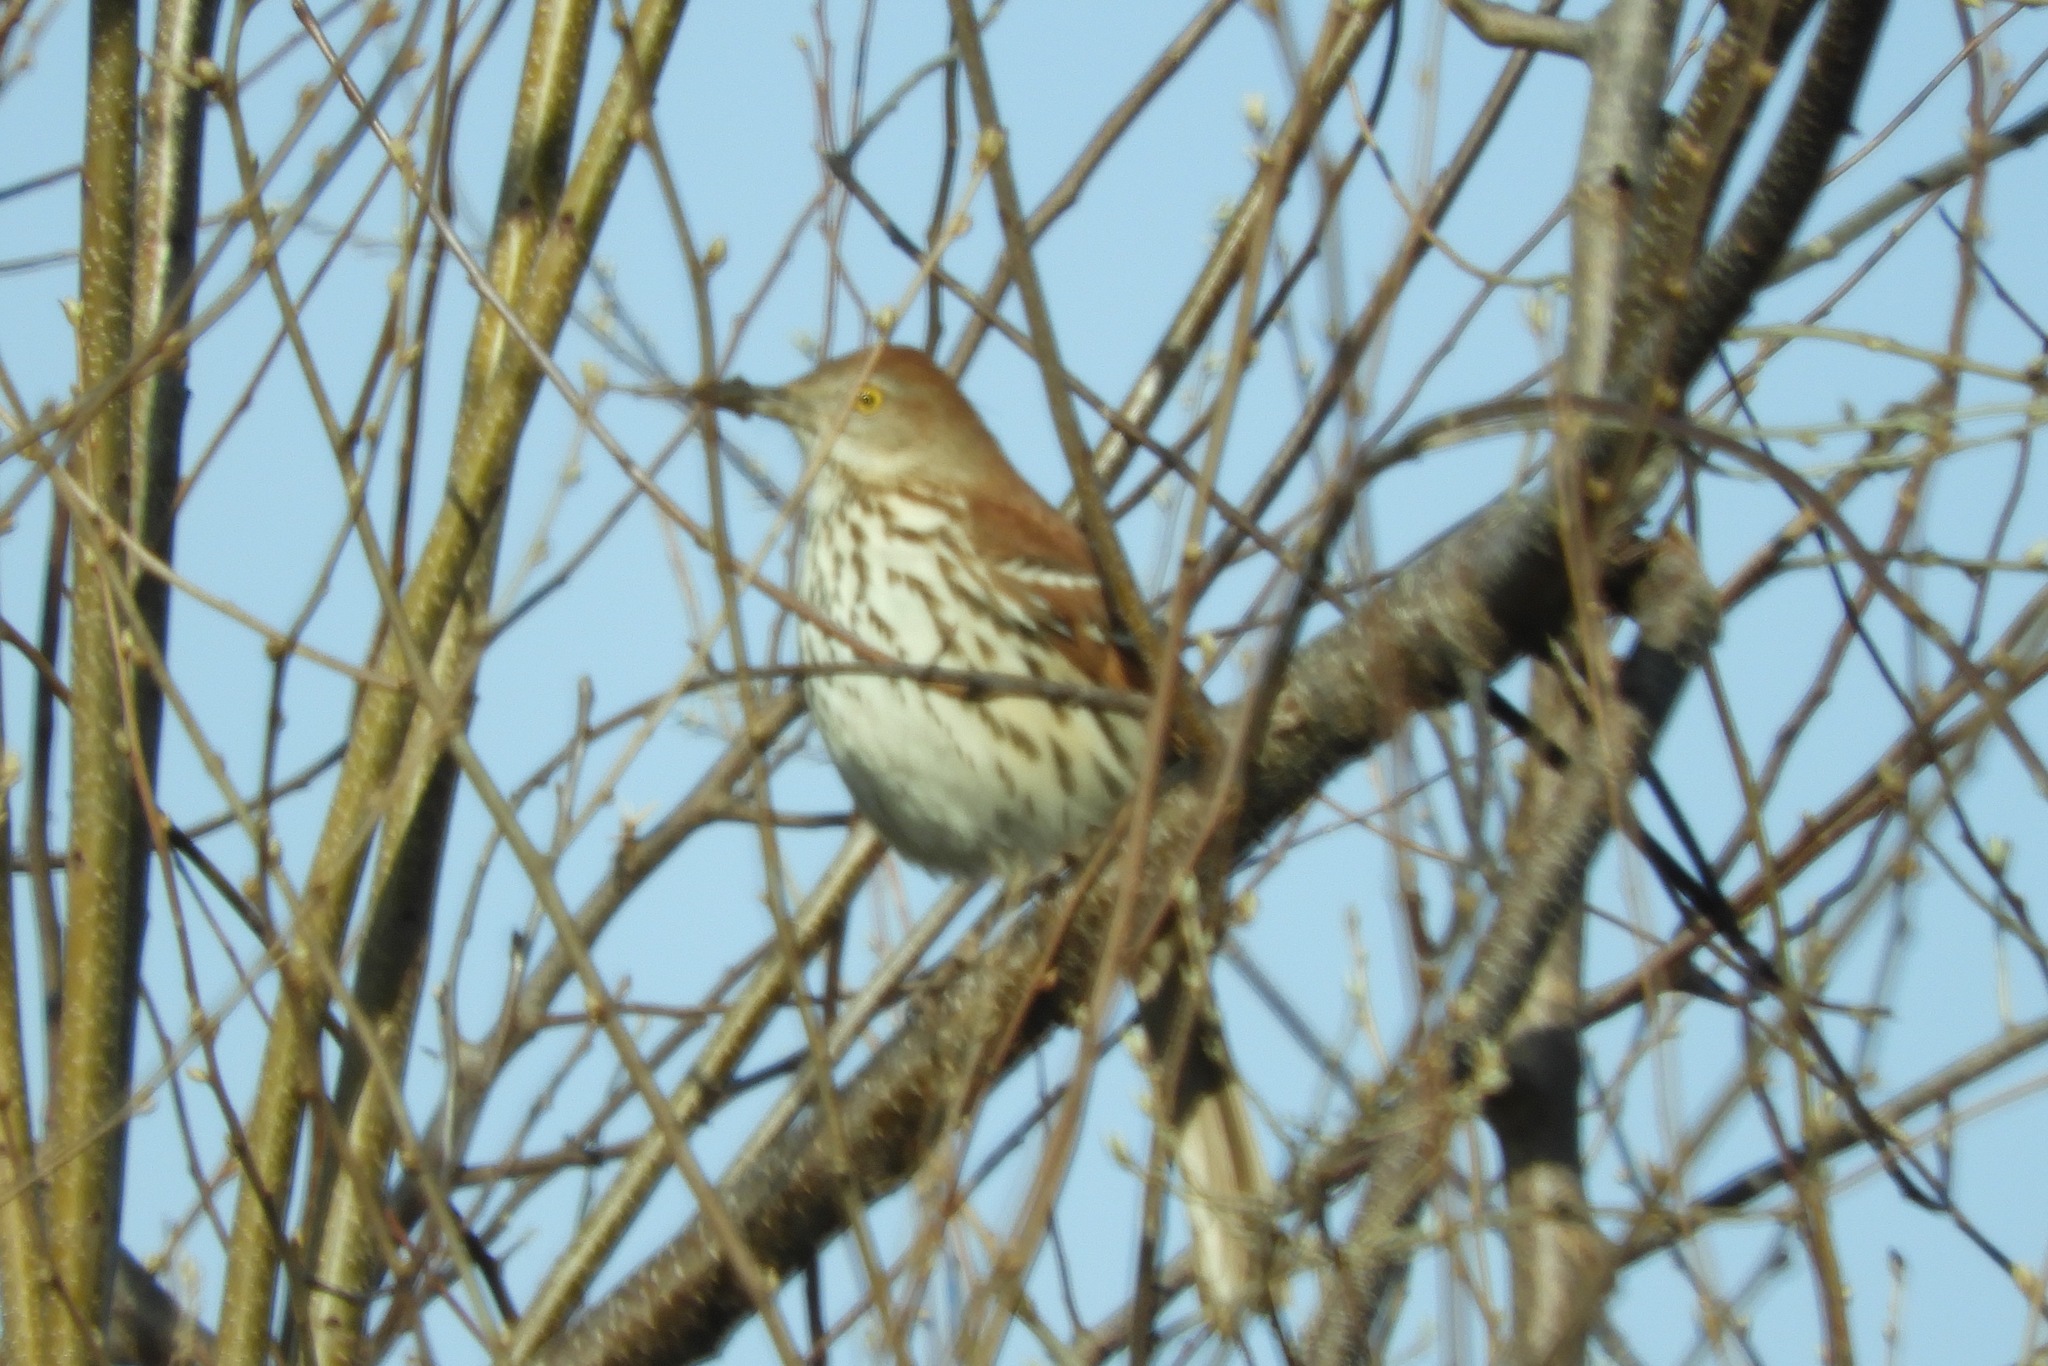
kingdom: Animalia
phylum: Chordata
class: Aves
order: Passeriformes
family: Mimidae
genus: Toxostoma
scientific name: Toxostoma rufum
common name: Brown thrasher
